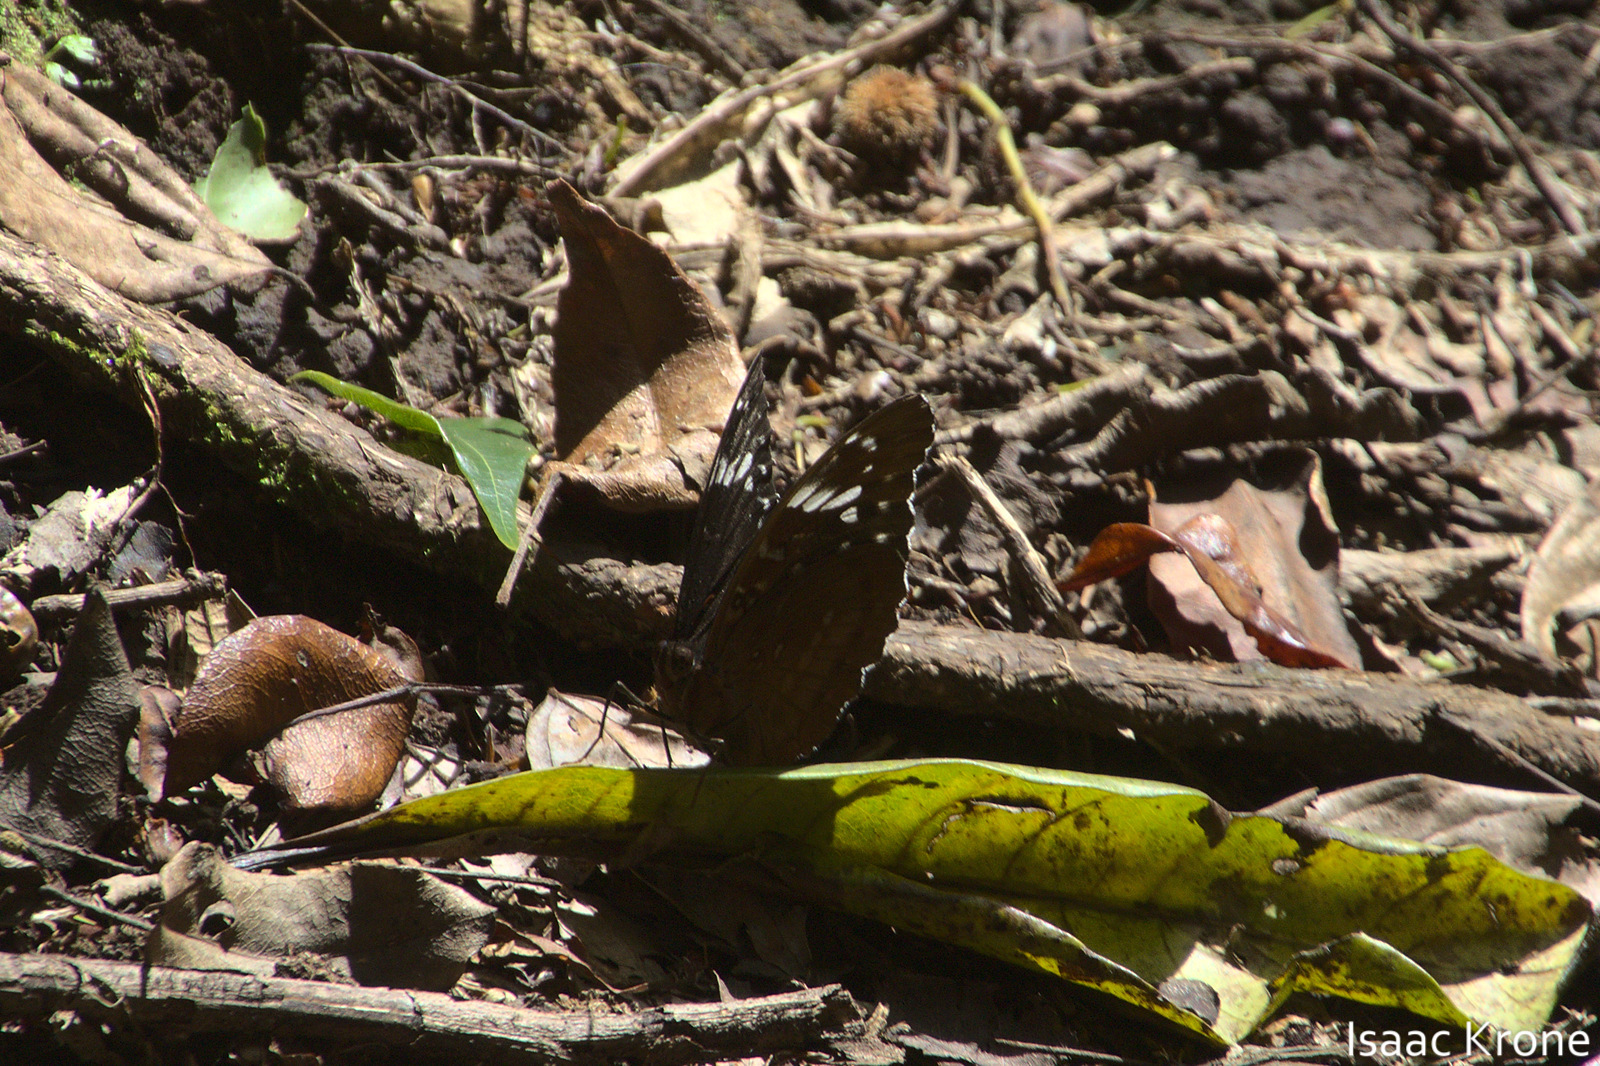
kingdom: Animalia
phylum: Arthropoda
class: Insecta
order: Lepidoptera
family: Nymphalidae
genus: Lexias
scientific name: Lexias aeetes
